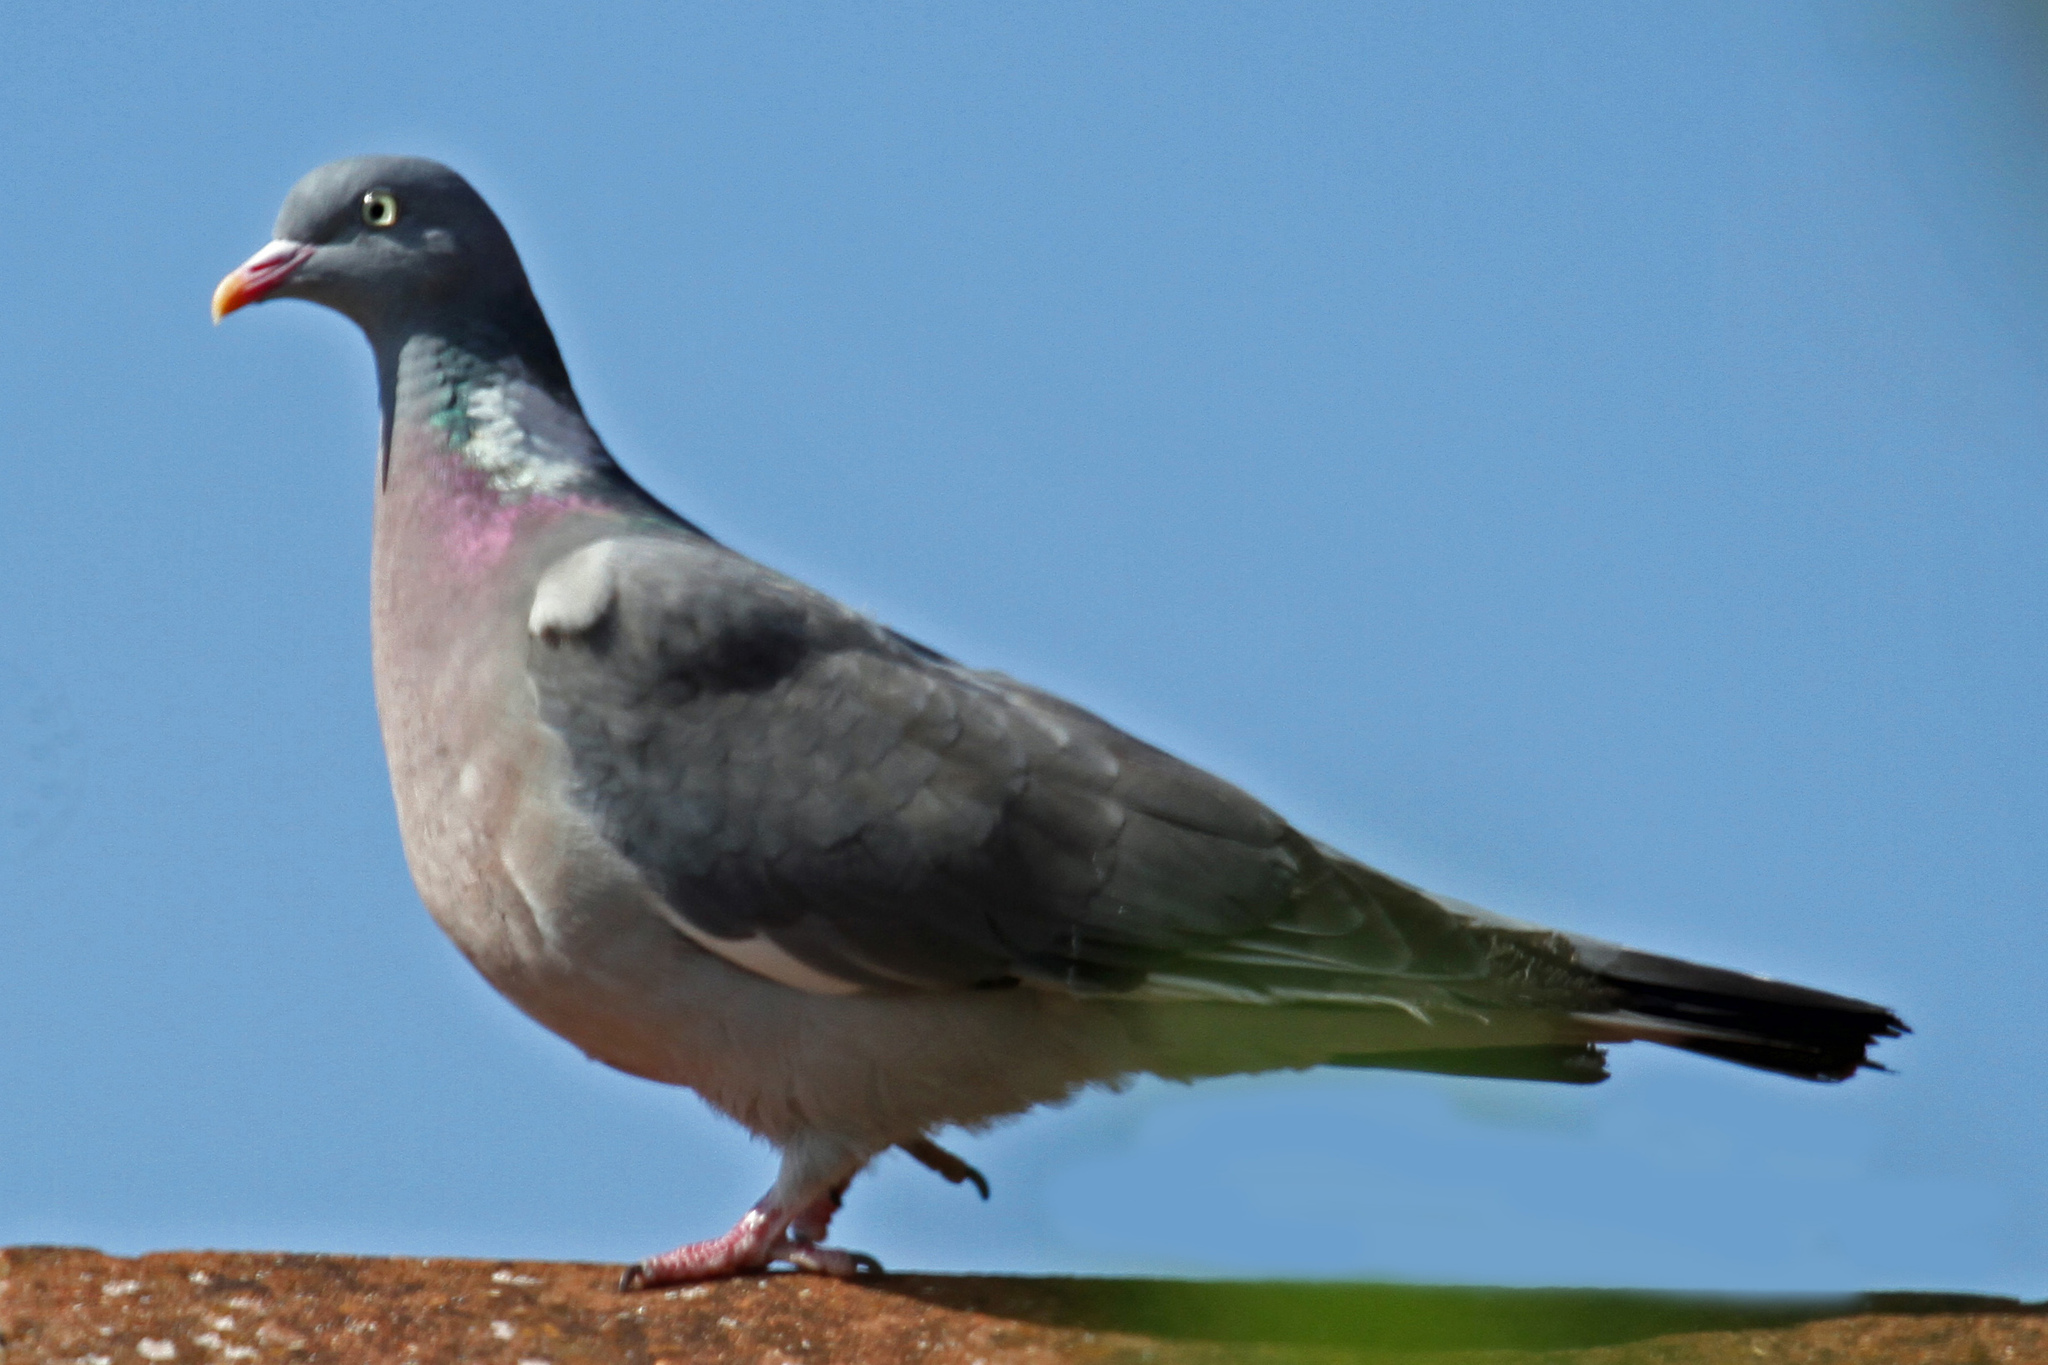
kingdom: Animalia
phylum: Chordata
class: Aves
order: Columbiformes
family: Columbidae
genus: Columba
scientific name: Columba palumbus
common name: Common wood pigeon
